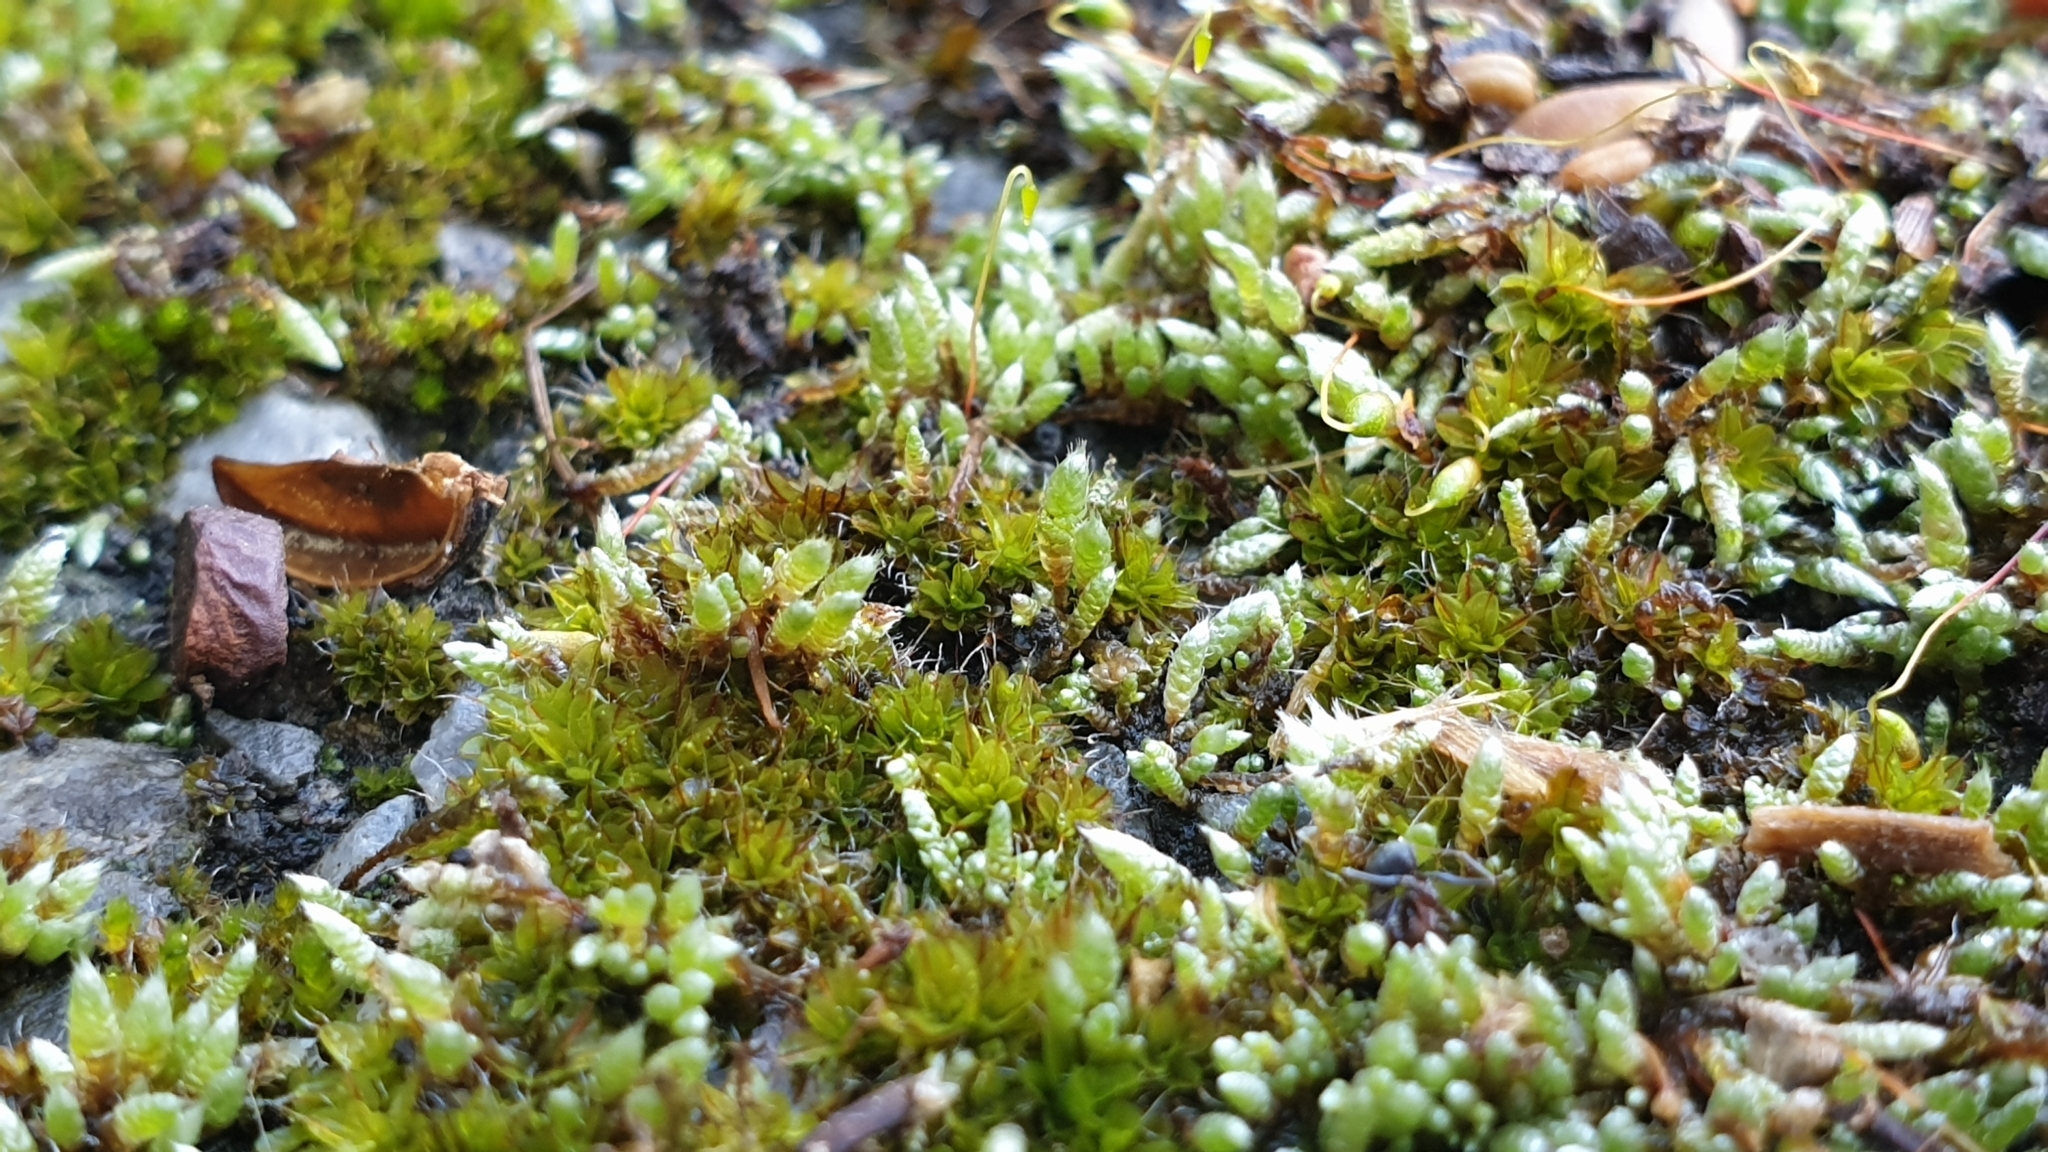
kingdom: Plantae
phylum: Bryophyta
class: Bryopsida
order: Bryales
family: Bryaceae
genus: Bryum
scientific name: Bryum argenteum
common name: Silver-moss
